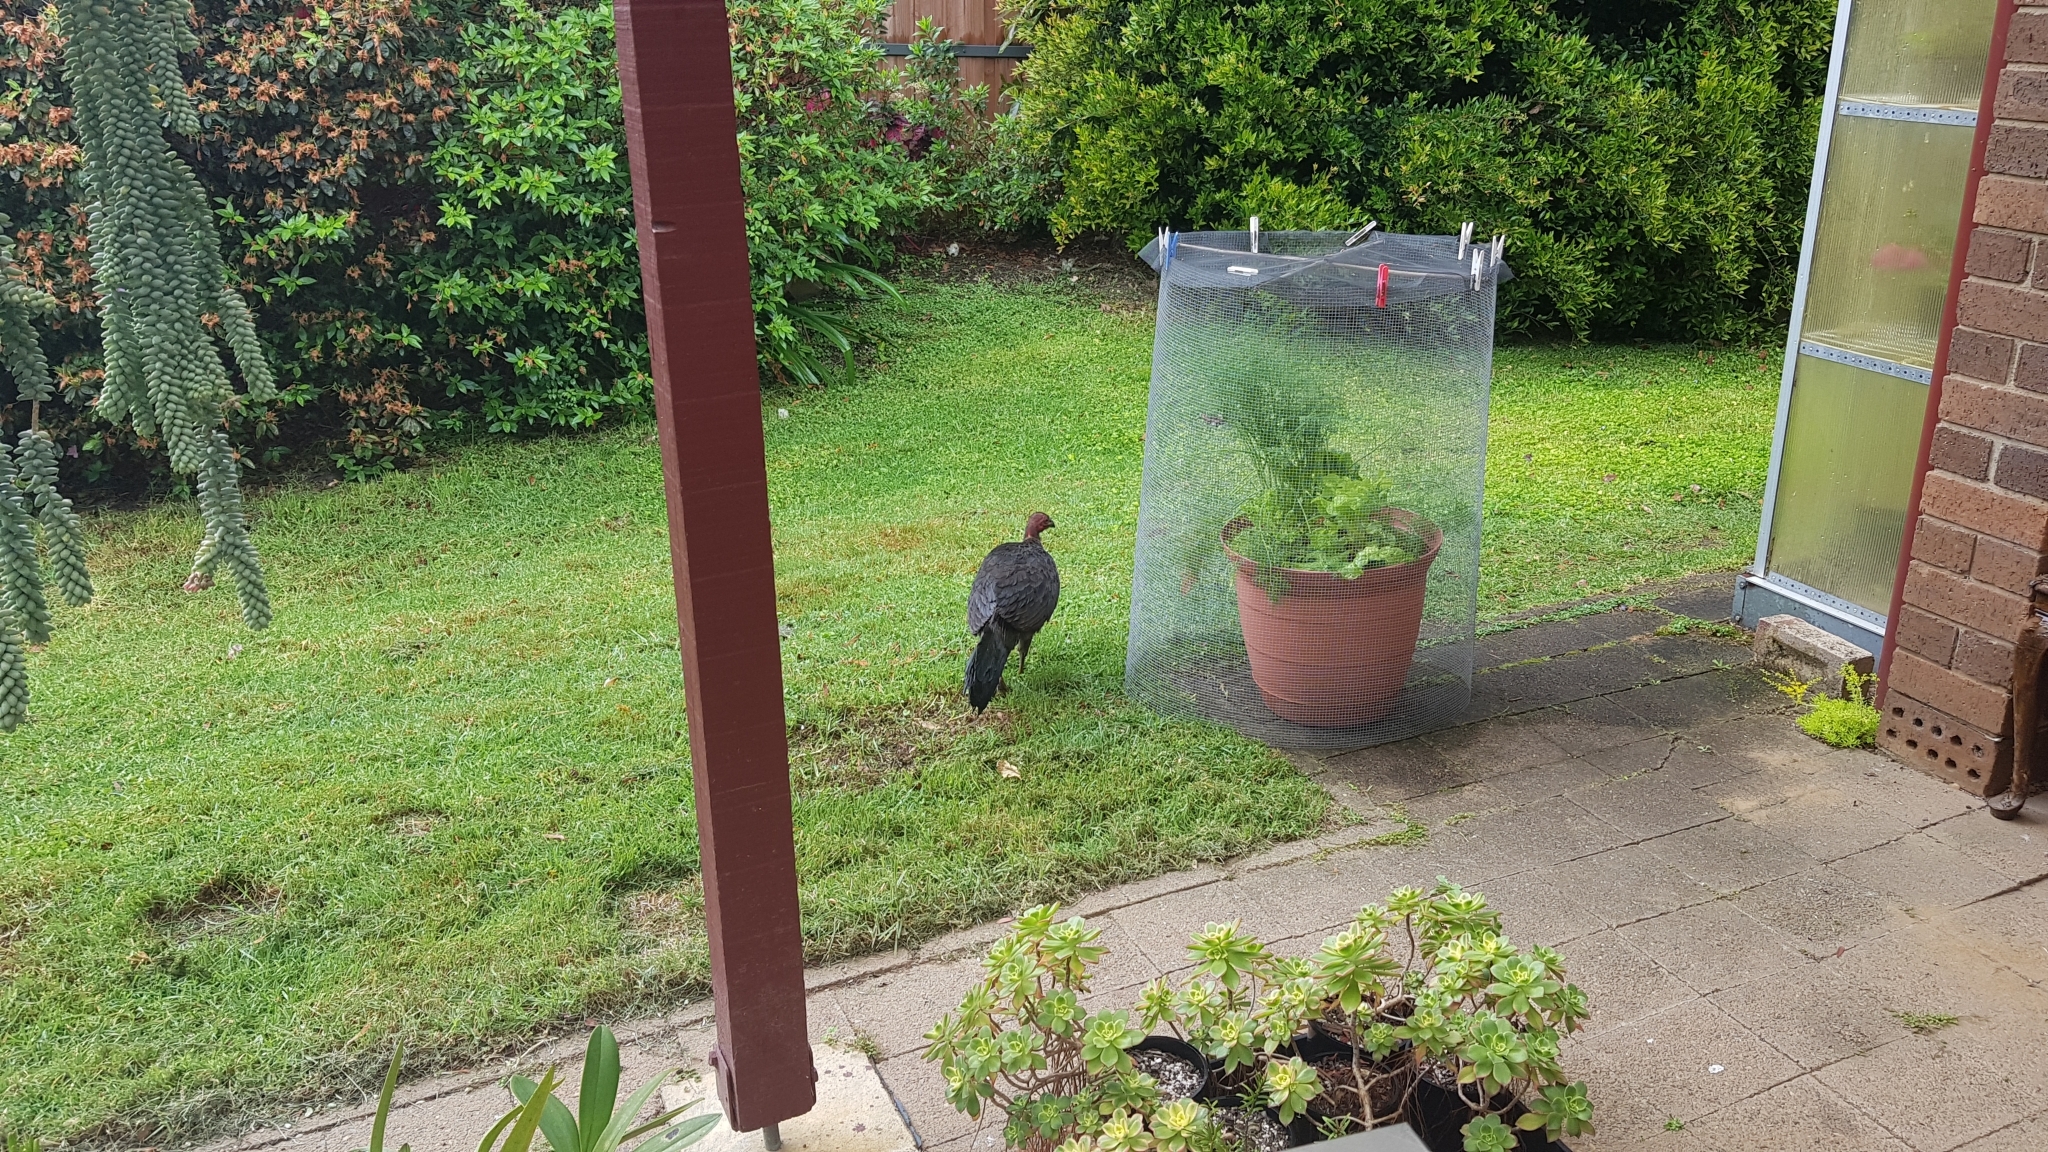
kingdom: Animalia
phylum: Chordata
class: Aves
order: Galliformes
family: Megapodiidae
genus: Alectura
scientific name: Alectura lathami
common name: Australian brushturkey
